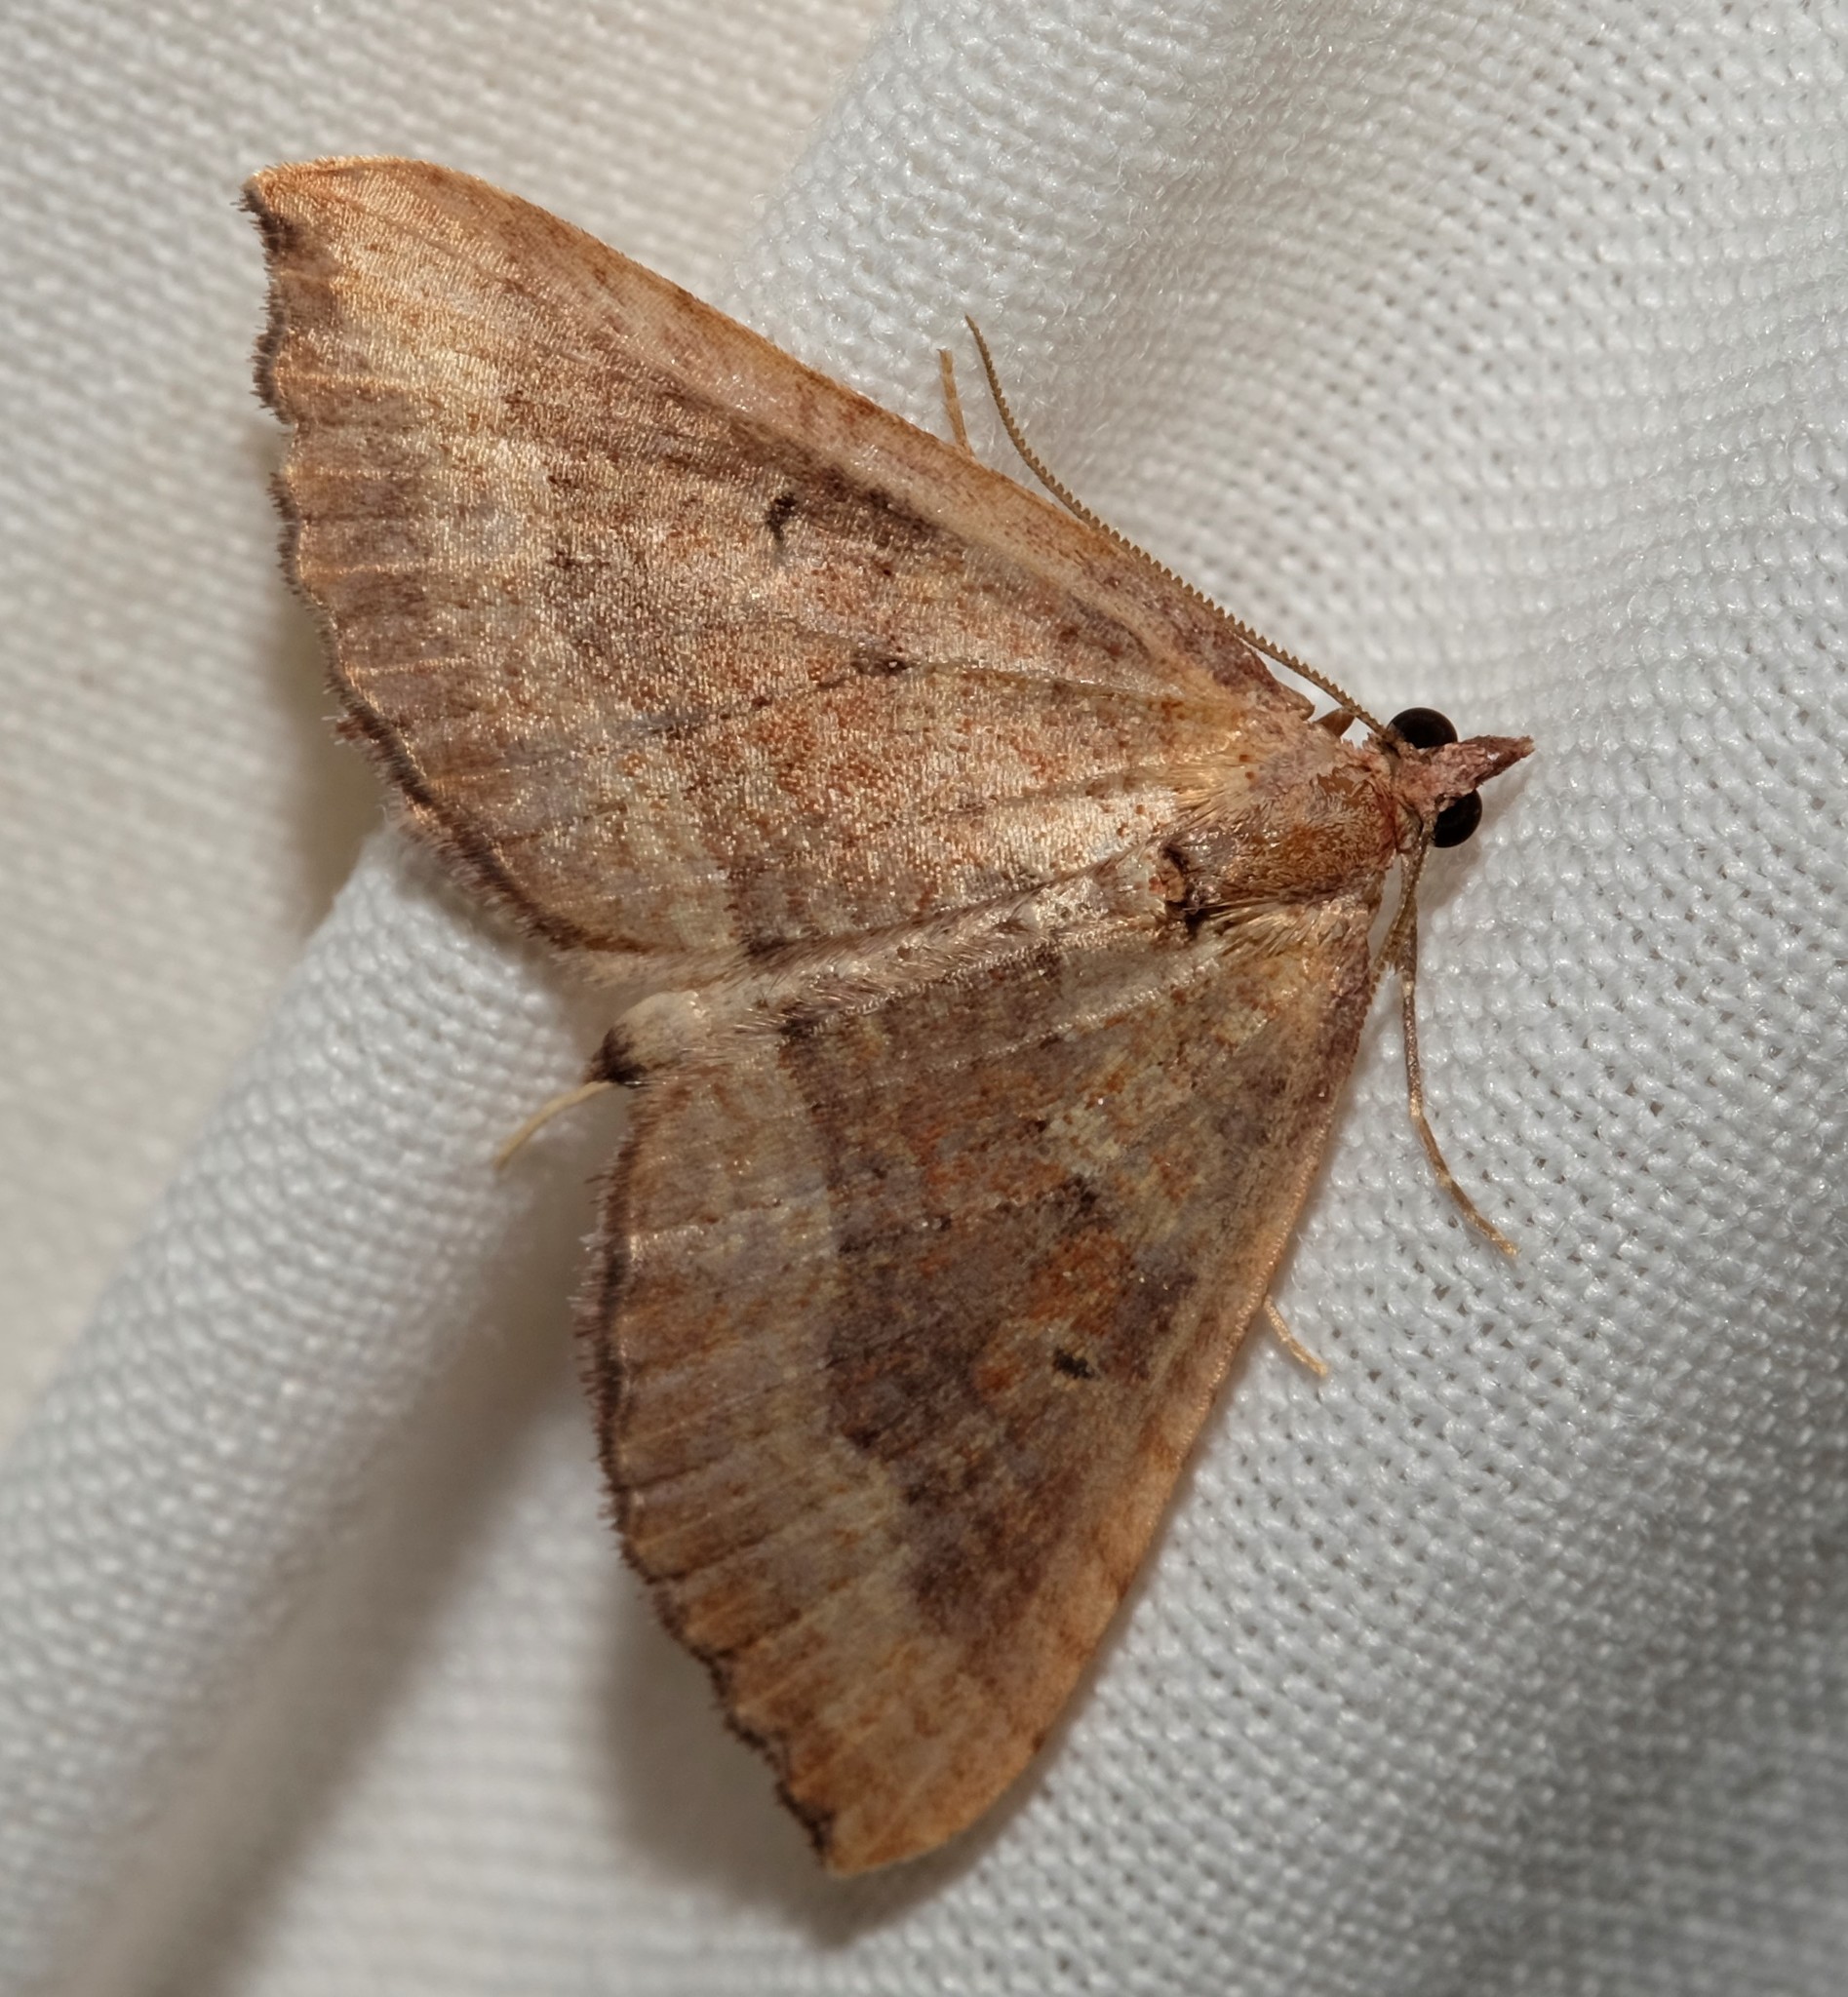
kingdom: Animalia
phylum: Arthropoda
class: Insecta
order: Lepidoptera
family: Geometridae
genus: Chrysolarentia
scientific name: Chrysolarentia trygodes
